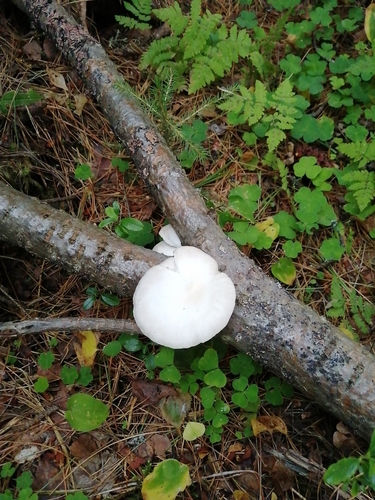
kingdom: Fungi
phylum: Basidiomycota
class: Agaricomycetes
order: Agaricales
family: Pleurotaceae
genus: Pleurotus
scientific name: Pleurotus pulmonarius
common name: Pale oyster
